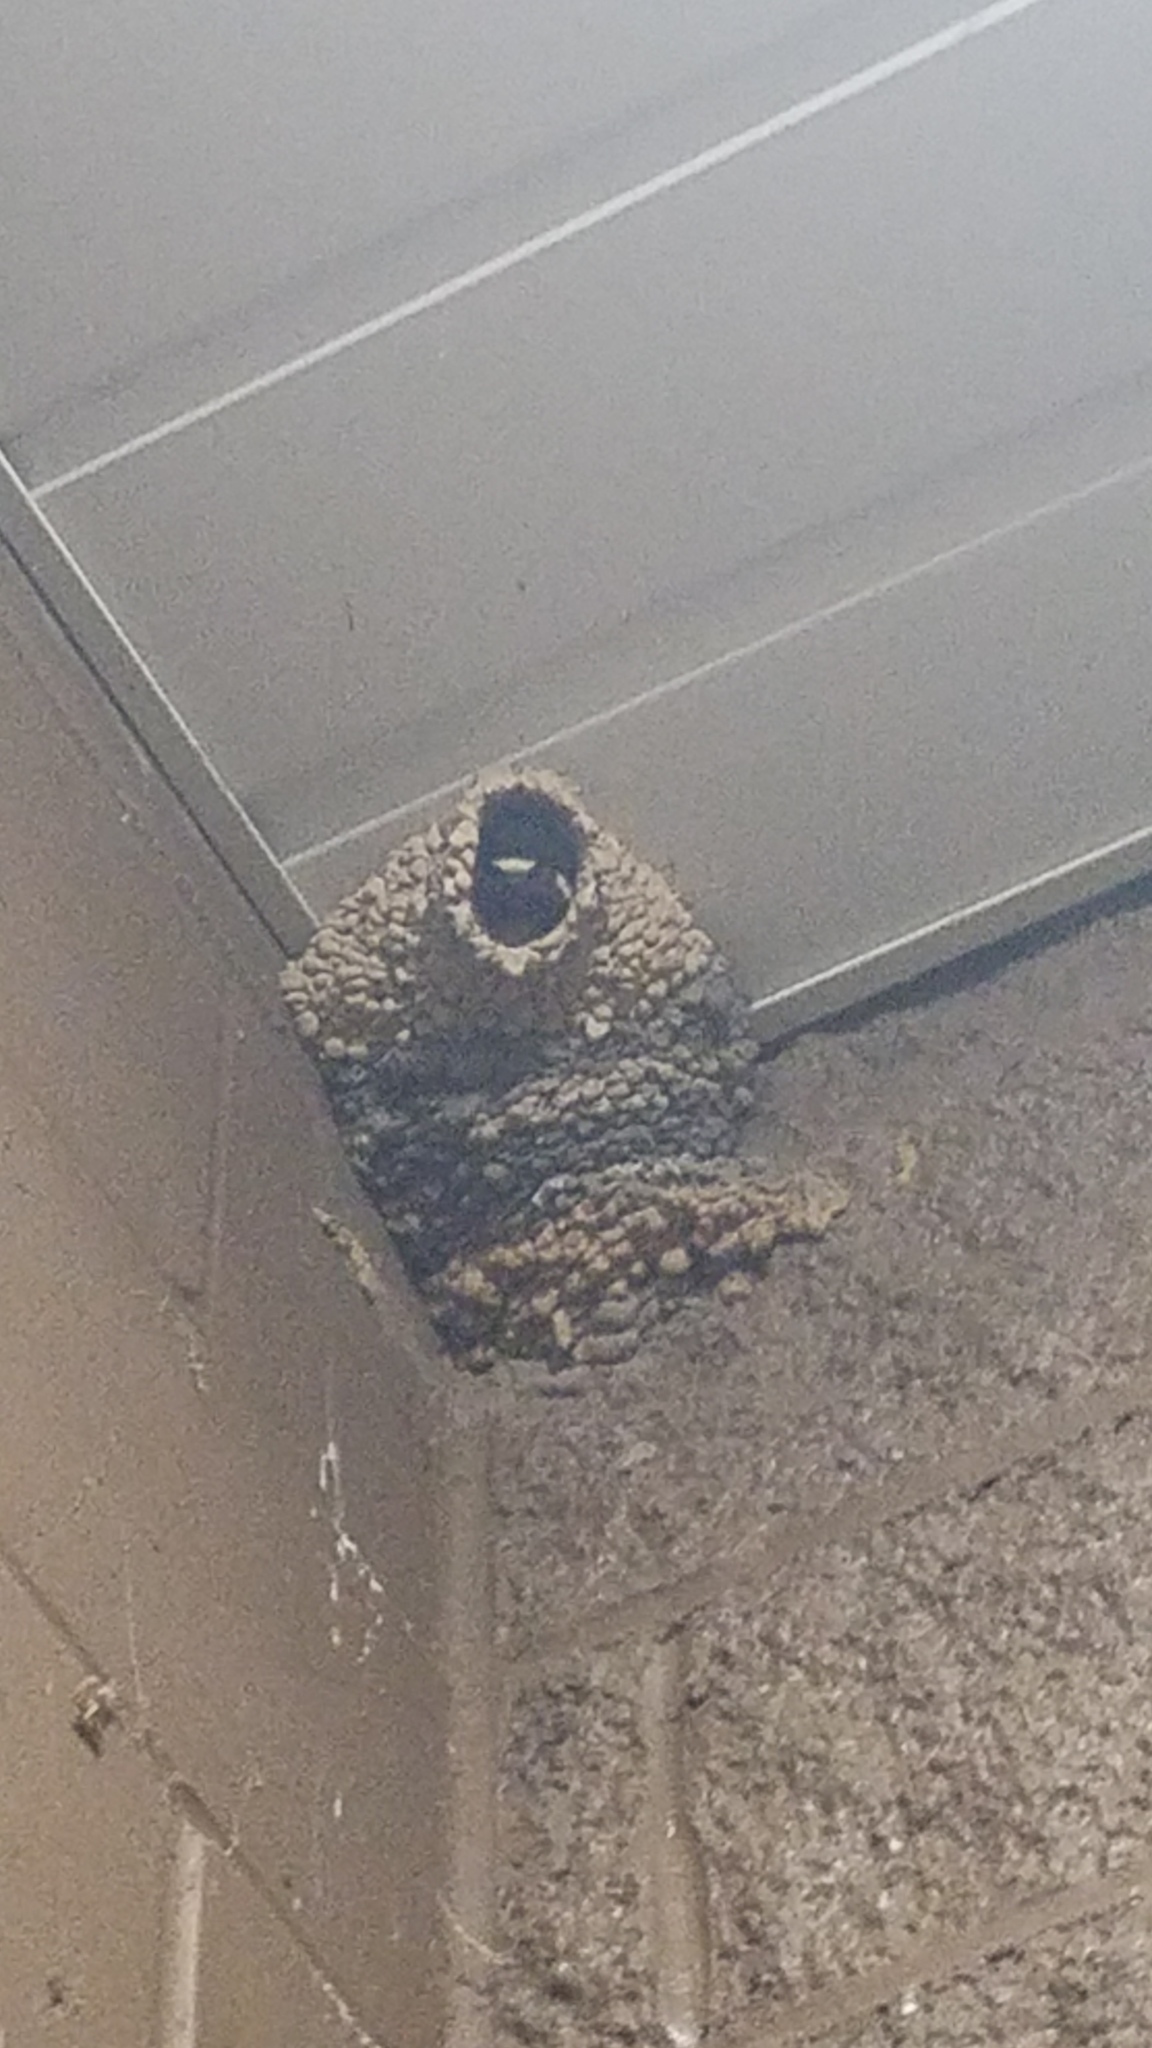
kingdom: Animalia
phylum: Chordata
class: Aves
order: Passeriformes
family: Hirundinidae
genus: Petrochelidon
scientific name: Petrochelidon pyrrhonota
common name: American cliff swallow
